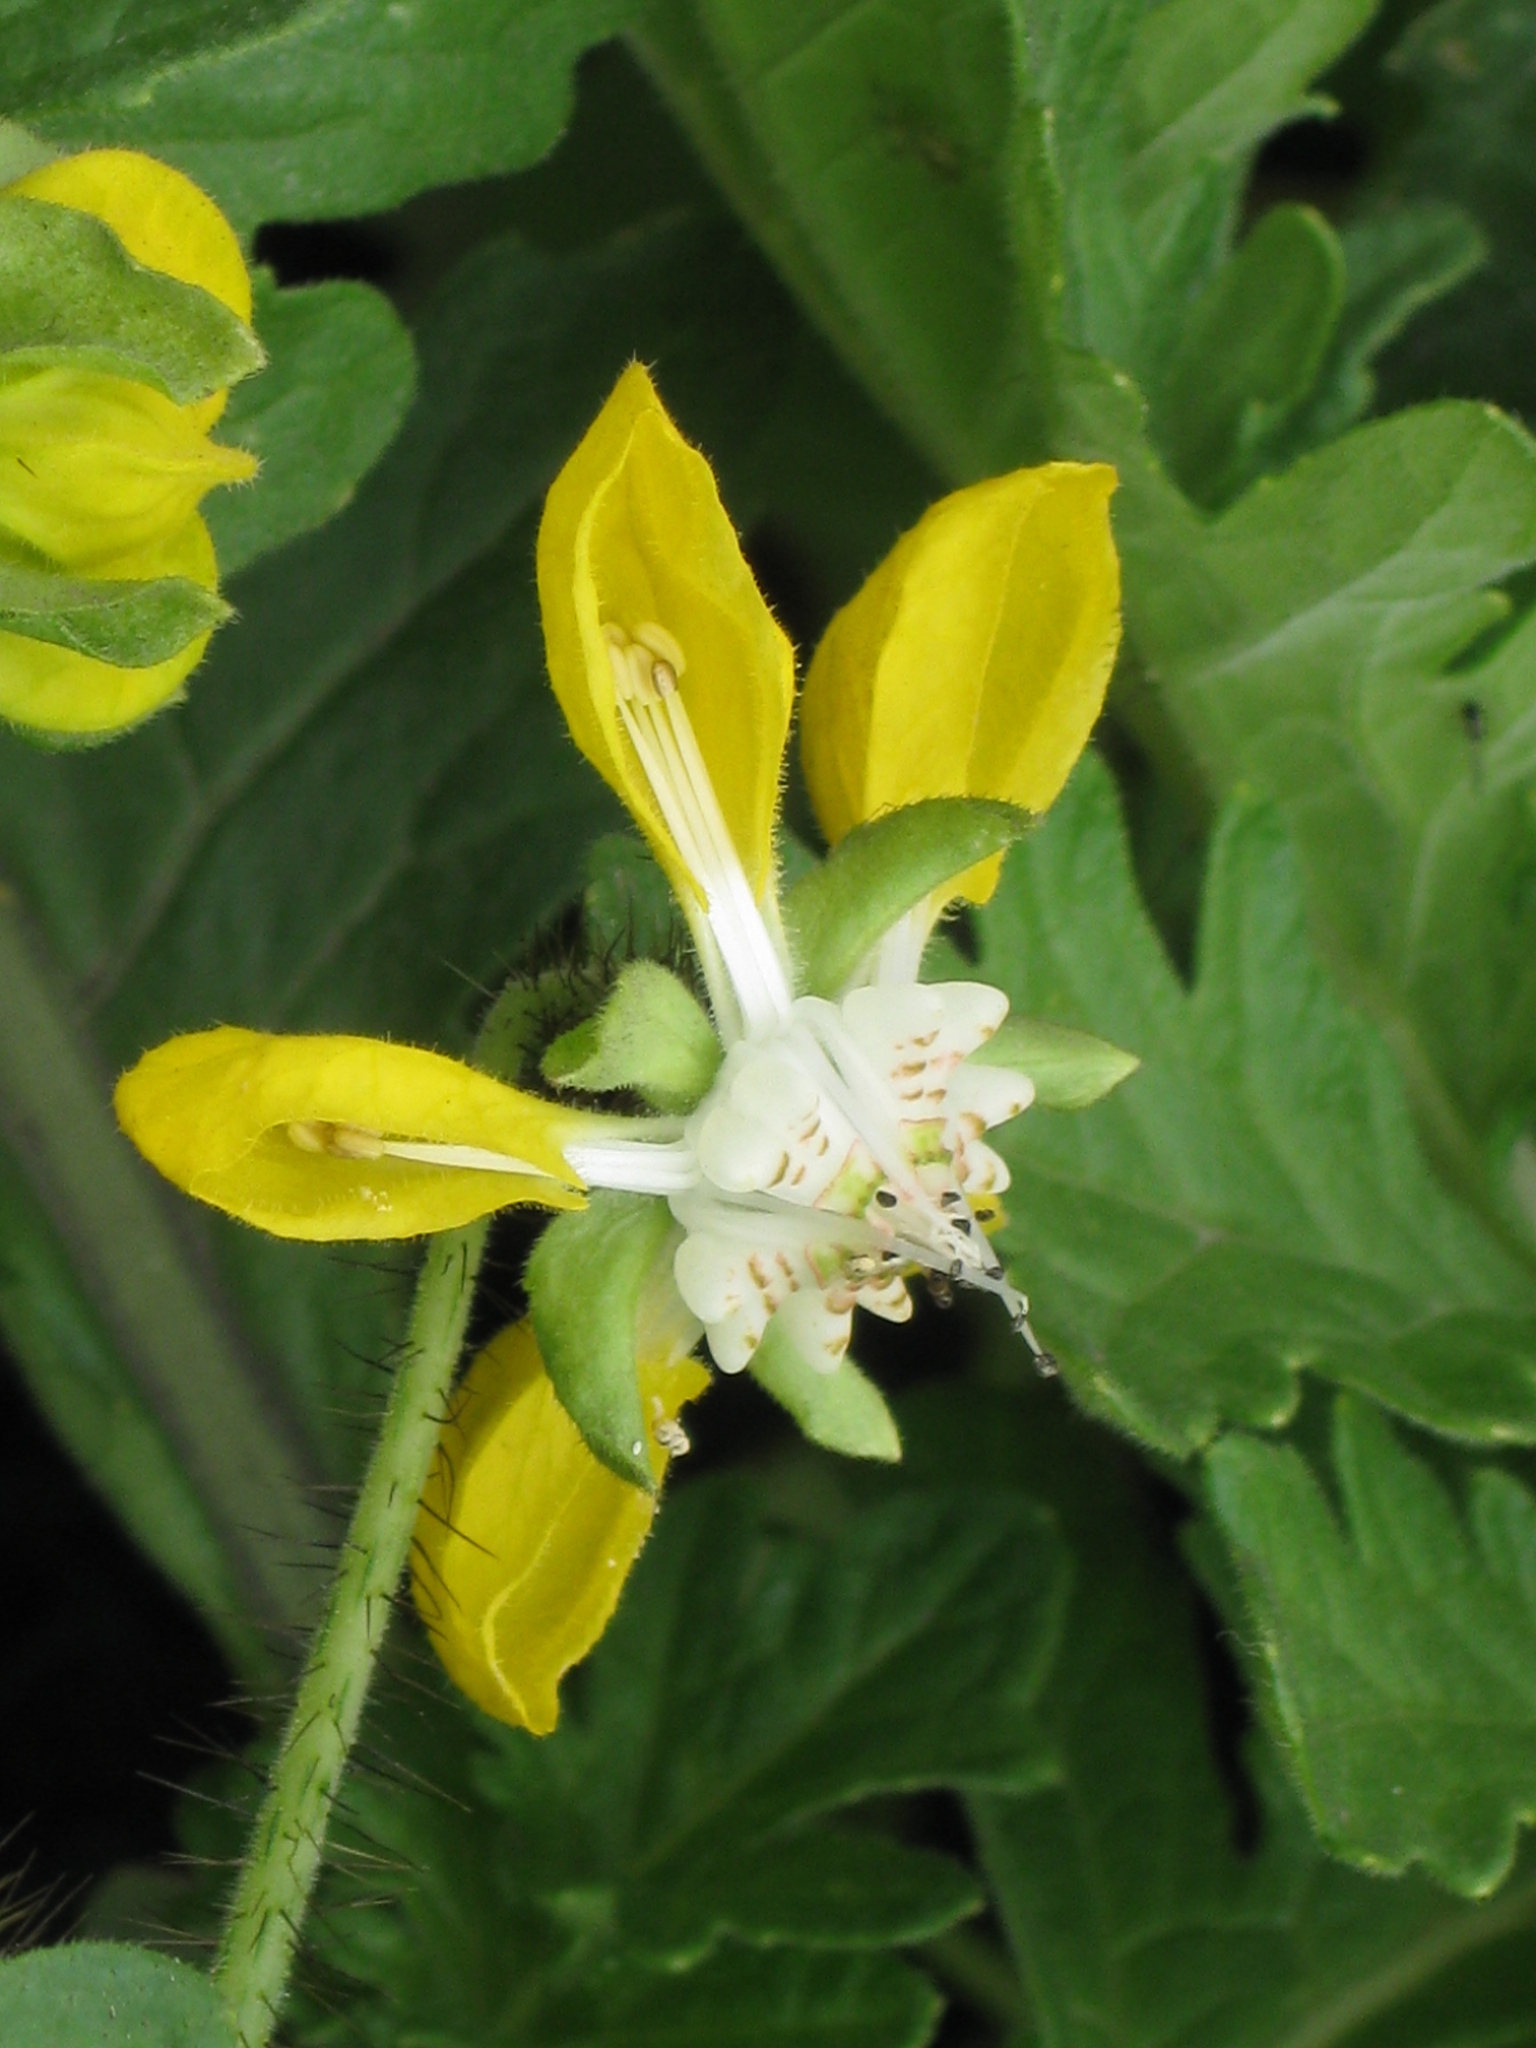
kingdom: Plantae
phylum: Tracheophyta
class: Magnoliopsida
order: Cornales
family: Loasaceae
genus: Nasa
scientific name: Nasa urens
